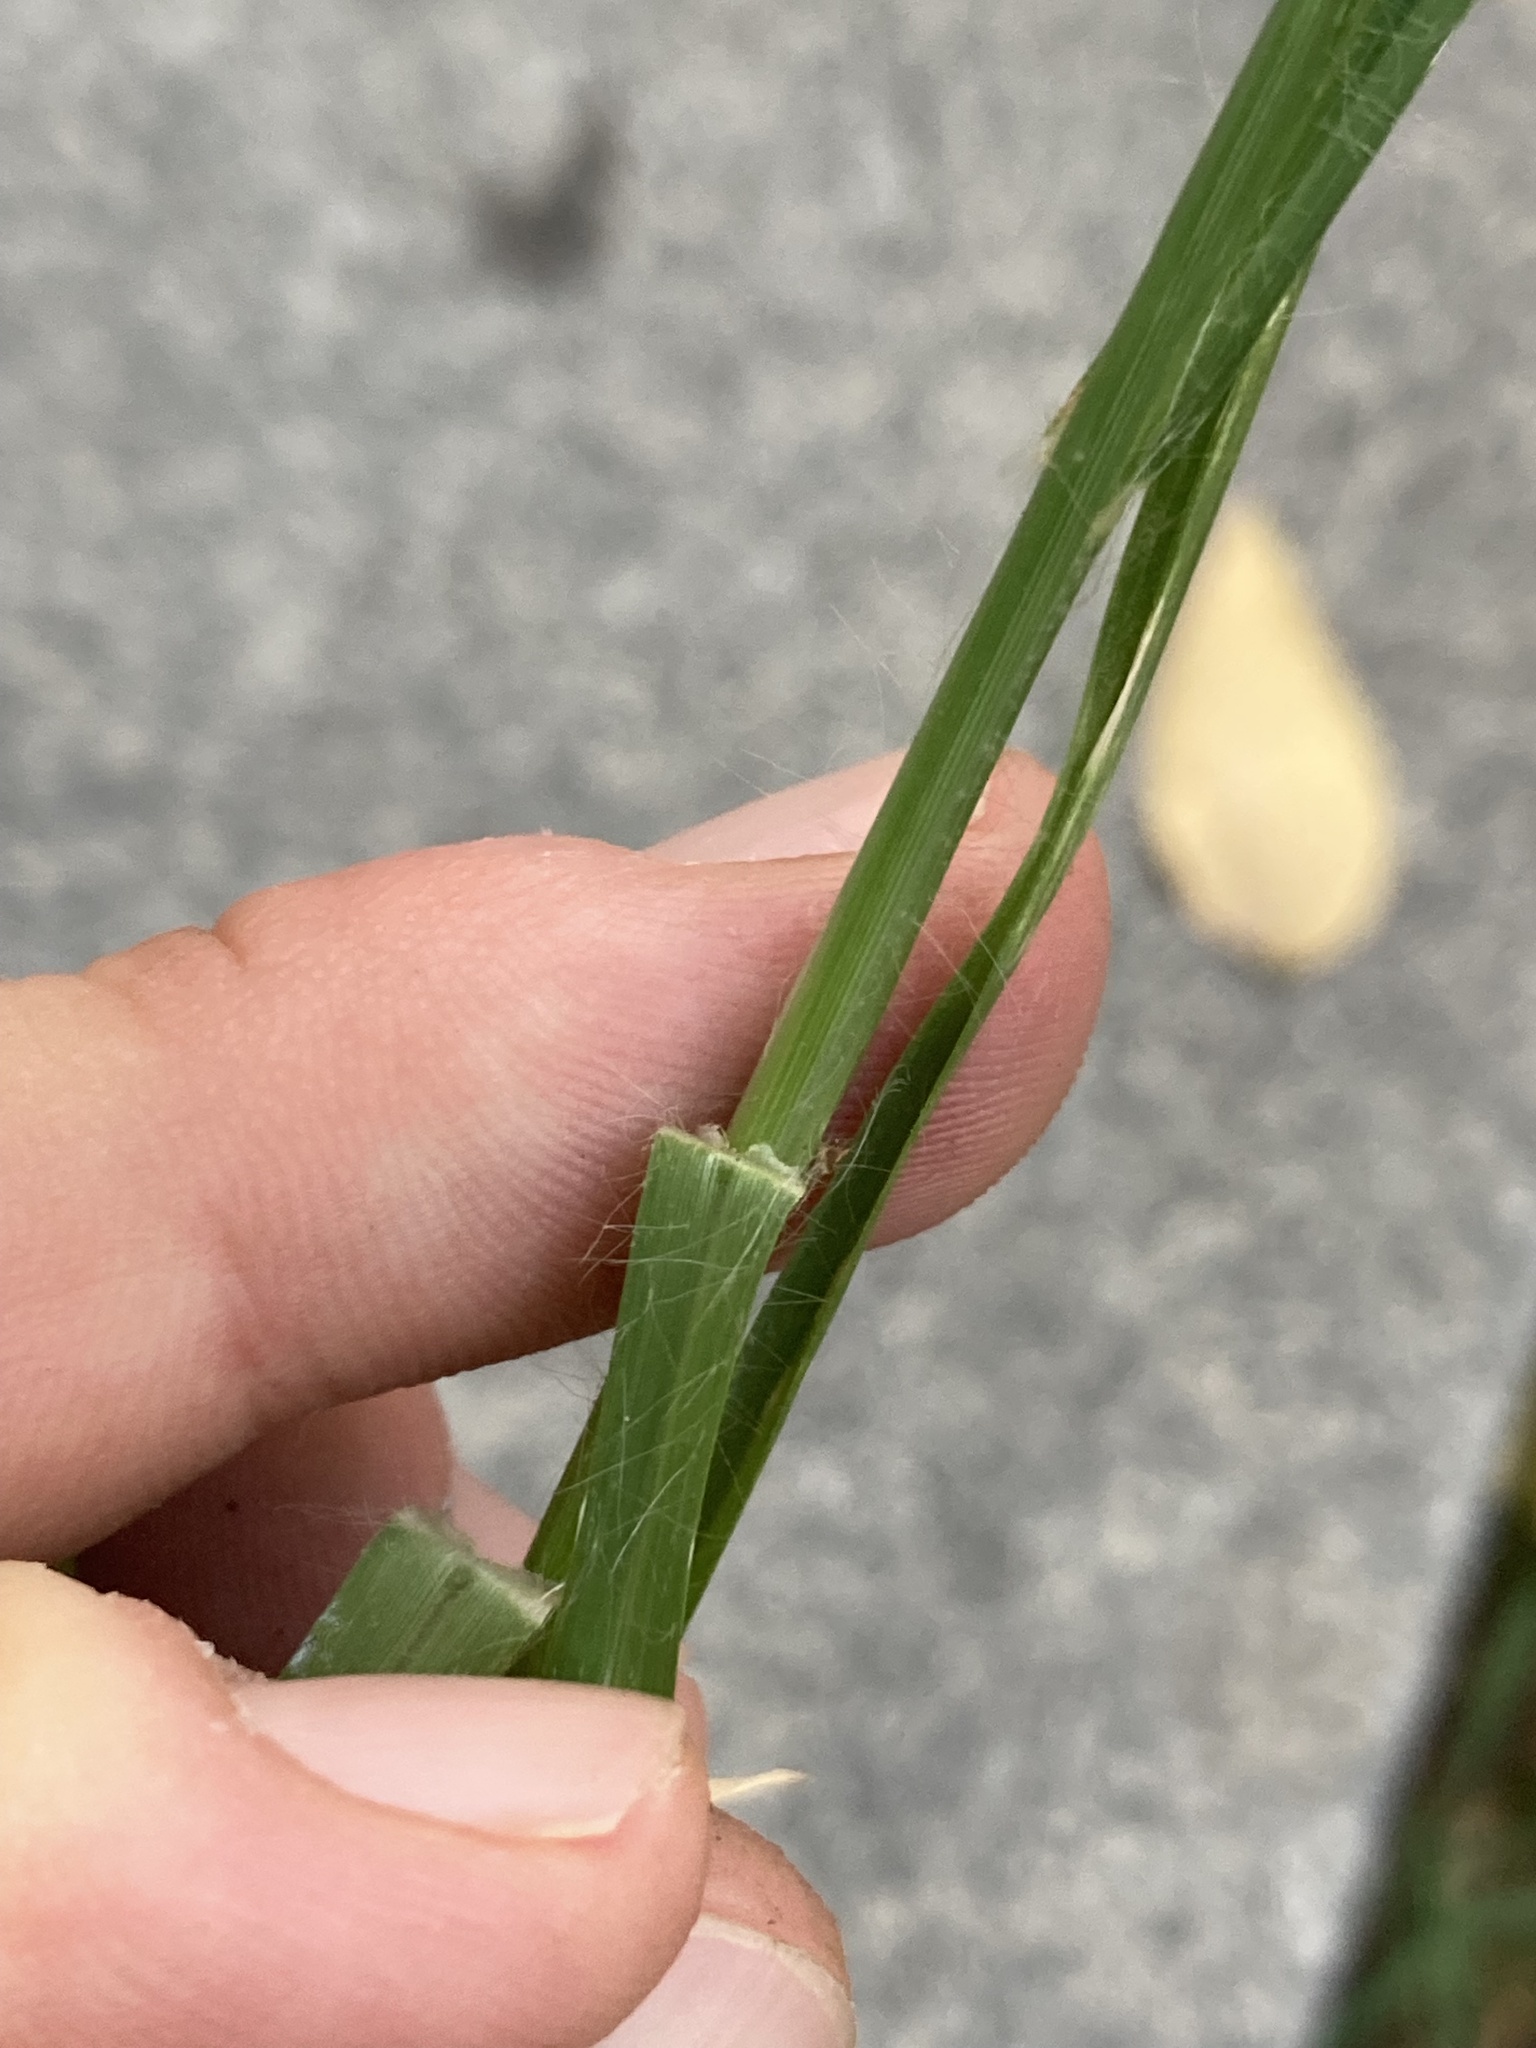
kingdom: Plantae
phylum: Tracheophyta
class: Liliopsida
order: Poales
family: Poaceae
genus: Eleusine
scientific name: Eleusine indica
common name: Yard-grass
